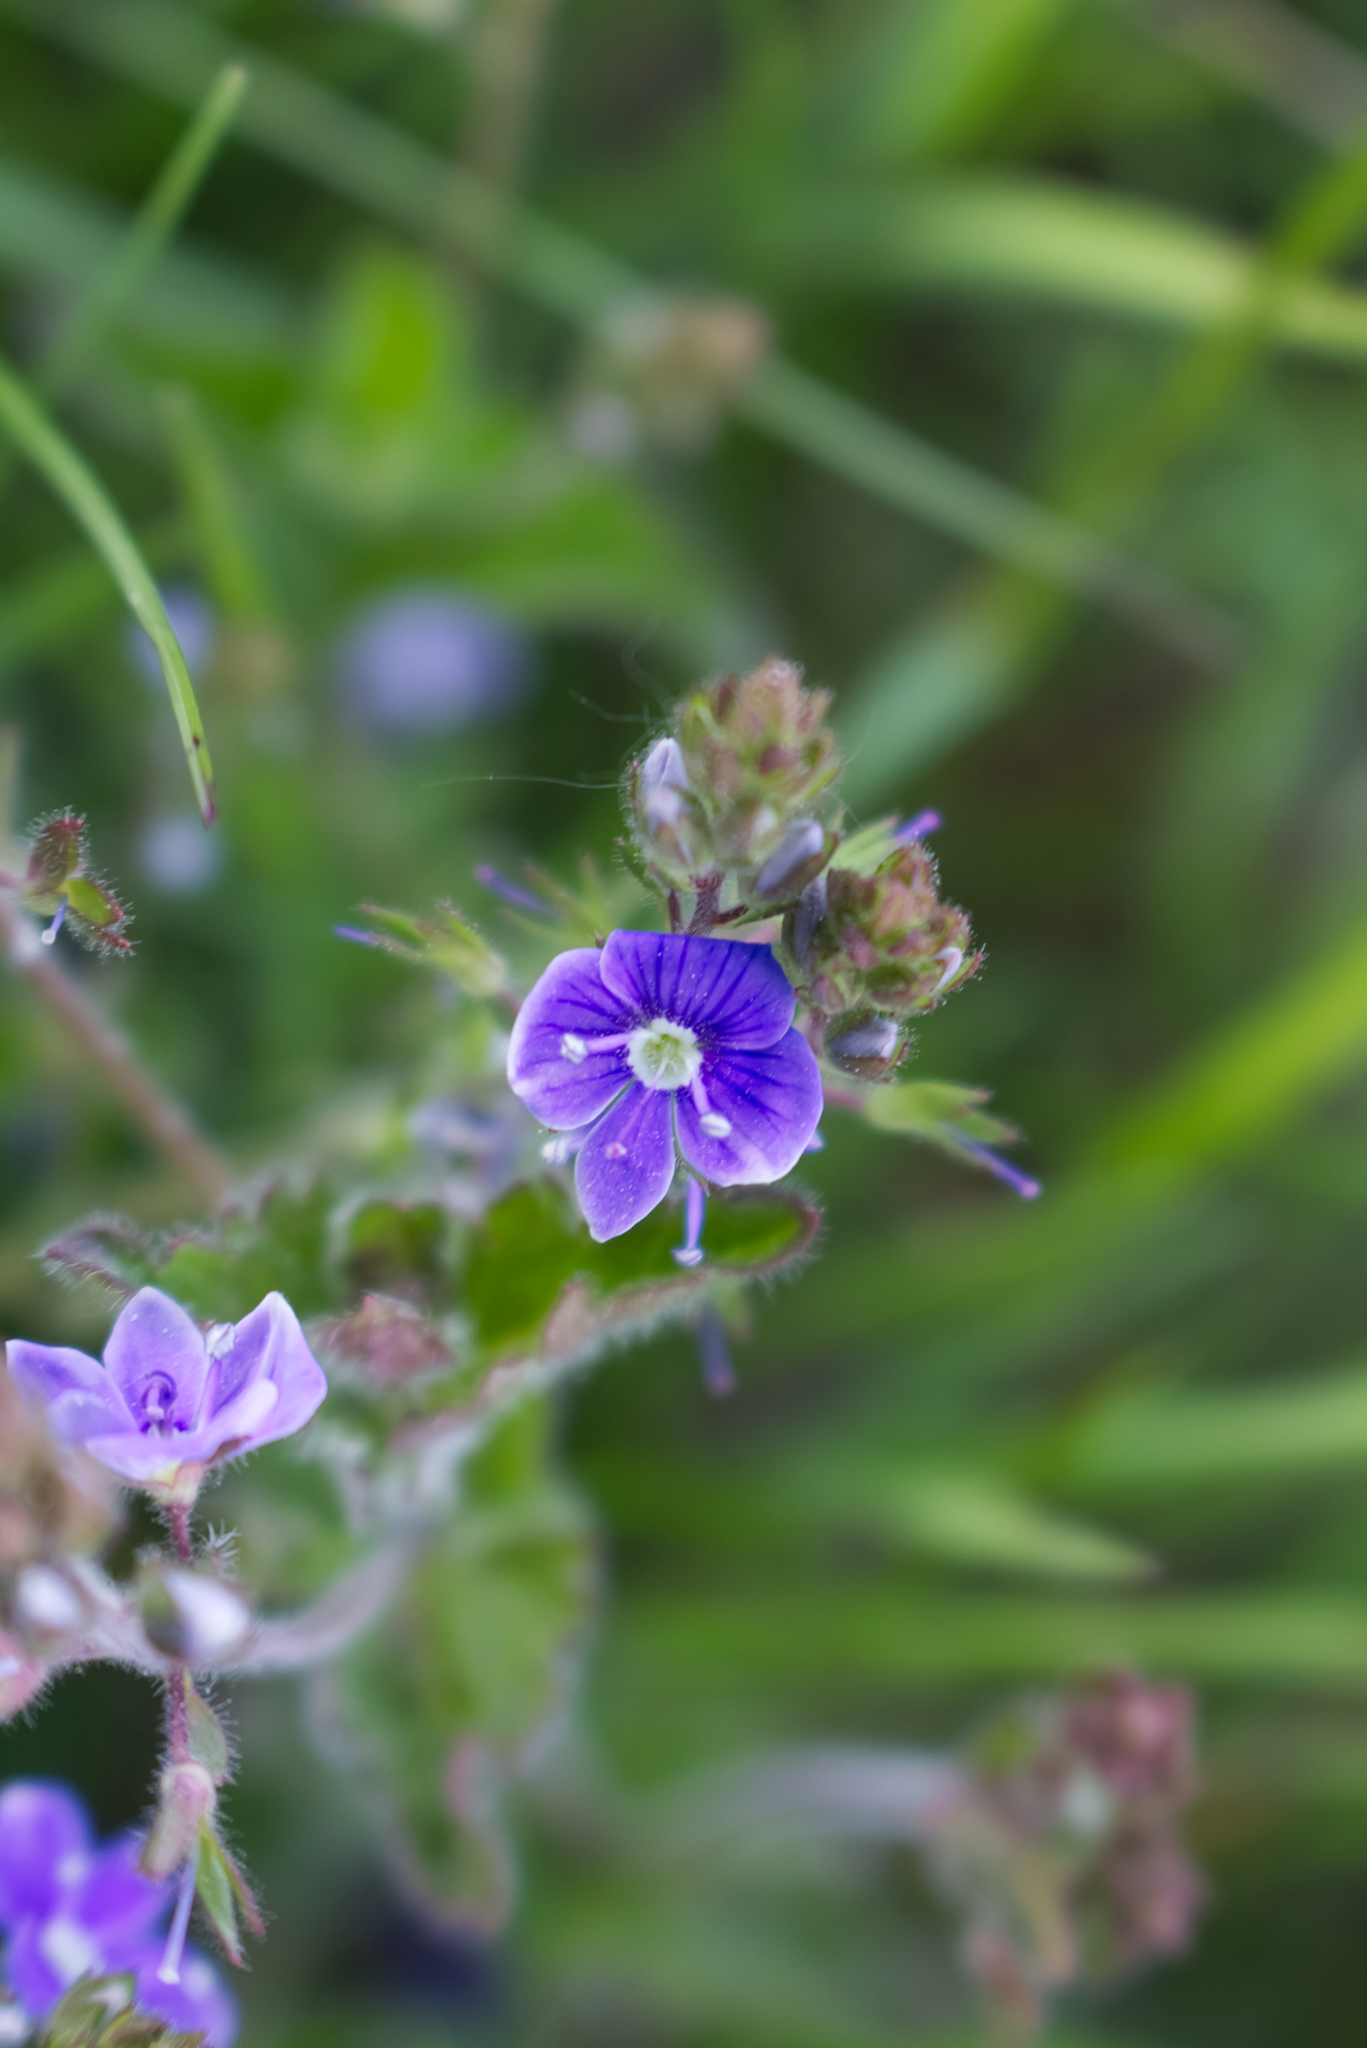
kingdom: Plantae
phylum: Tracheophyta
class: Magnoliopsida
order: Lamiales
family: Plantaginaceae
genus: Veronica
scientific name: Veronica chamaedrys
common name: Germander speedwell
